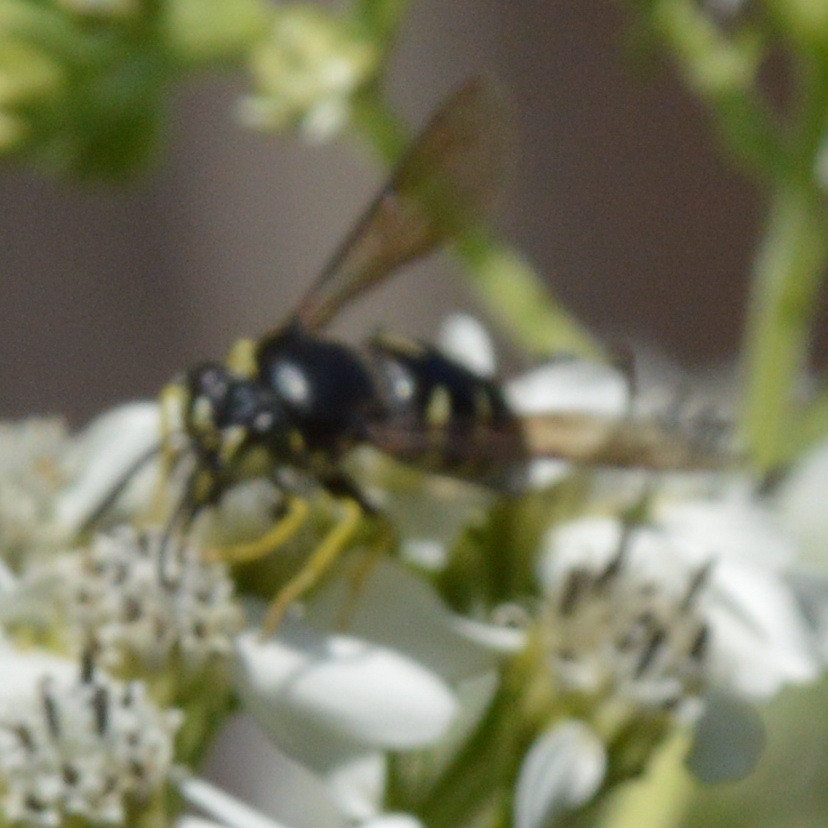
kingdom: Animalia
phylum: Arthropoda
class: Insecta
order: Hymenoptera
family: Crabronidae
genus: Bicyrtes
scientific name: Bicyrtes quadrifasciatus
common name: Four-banded stink bug hunter wasp
